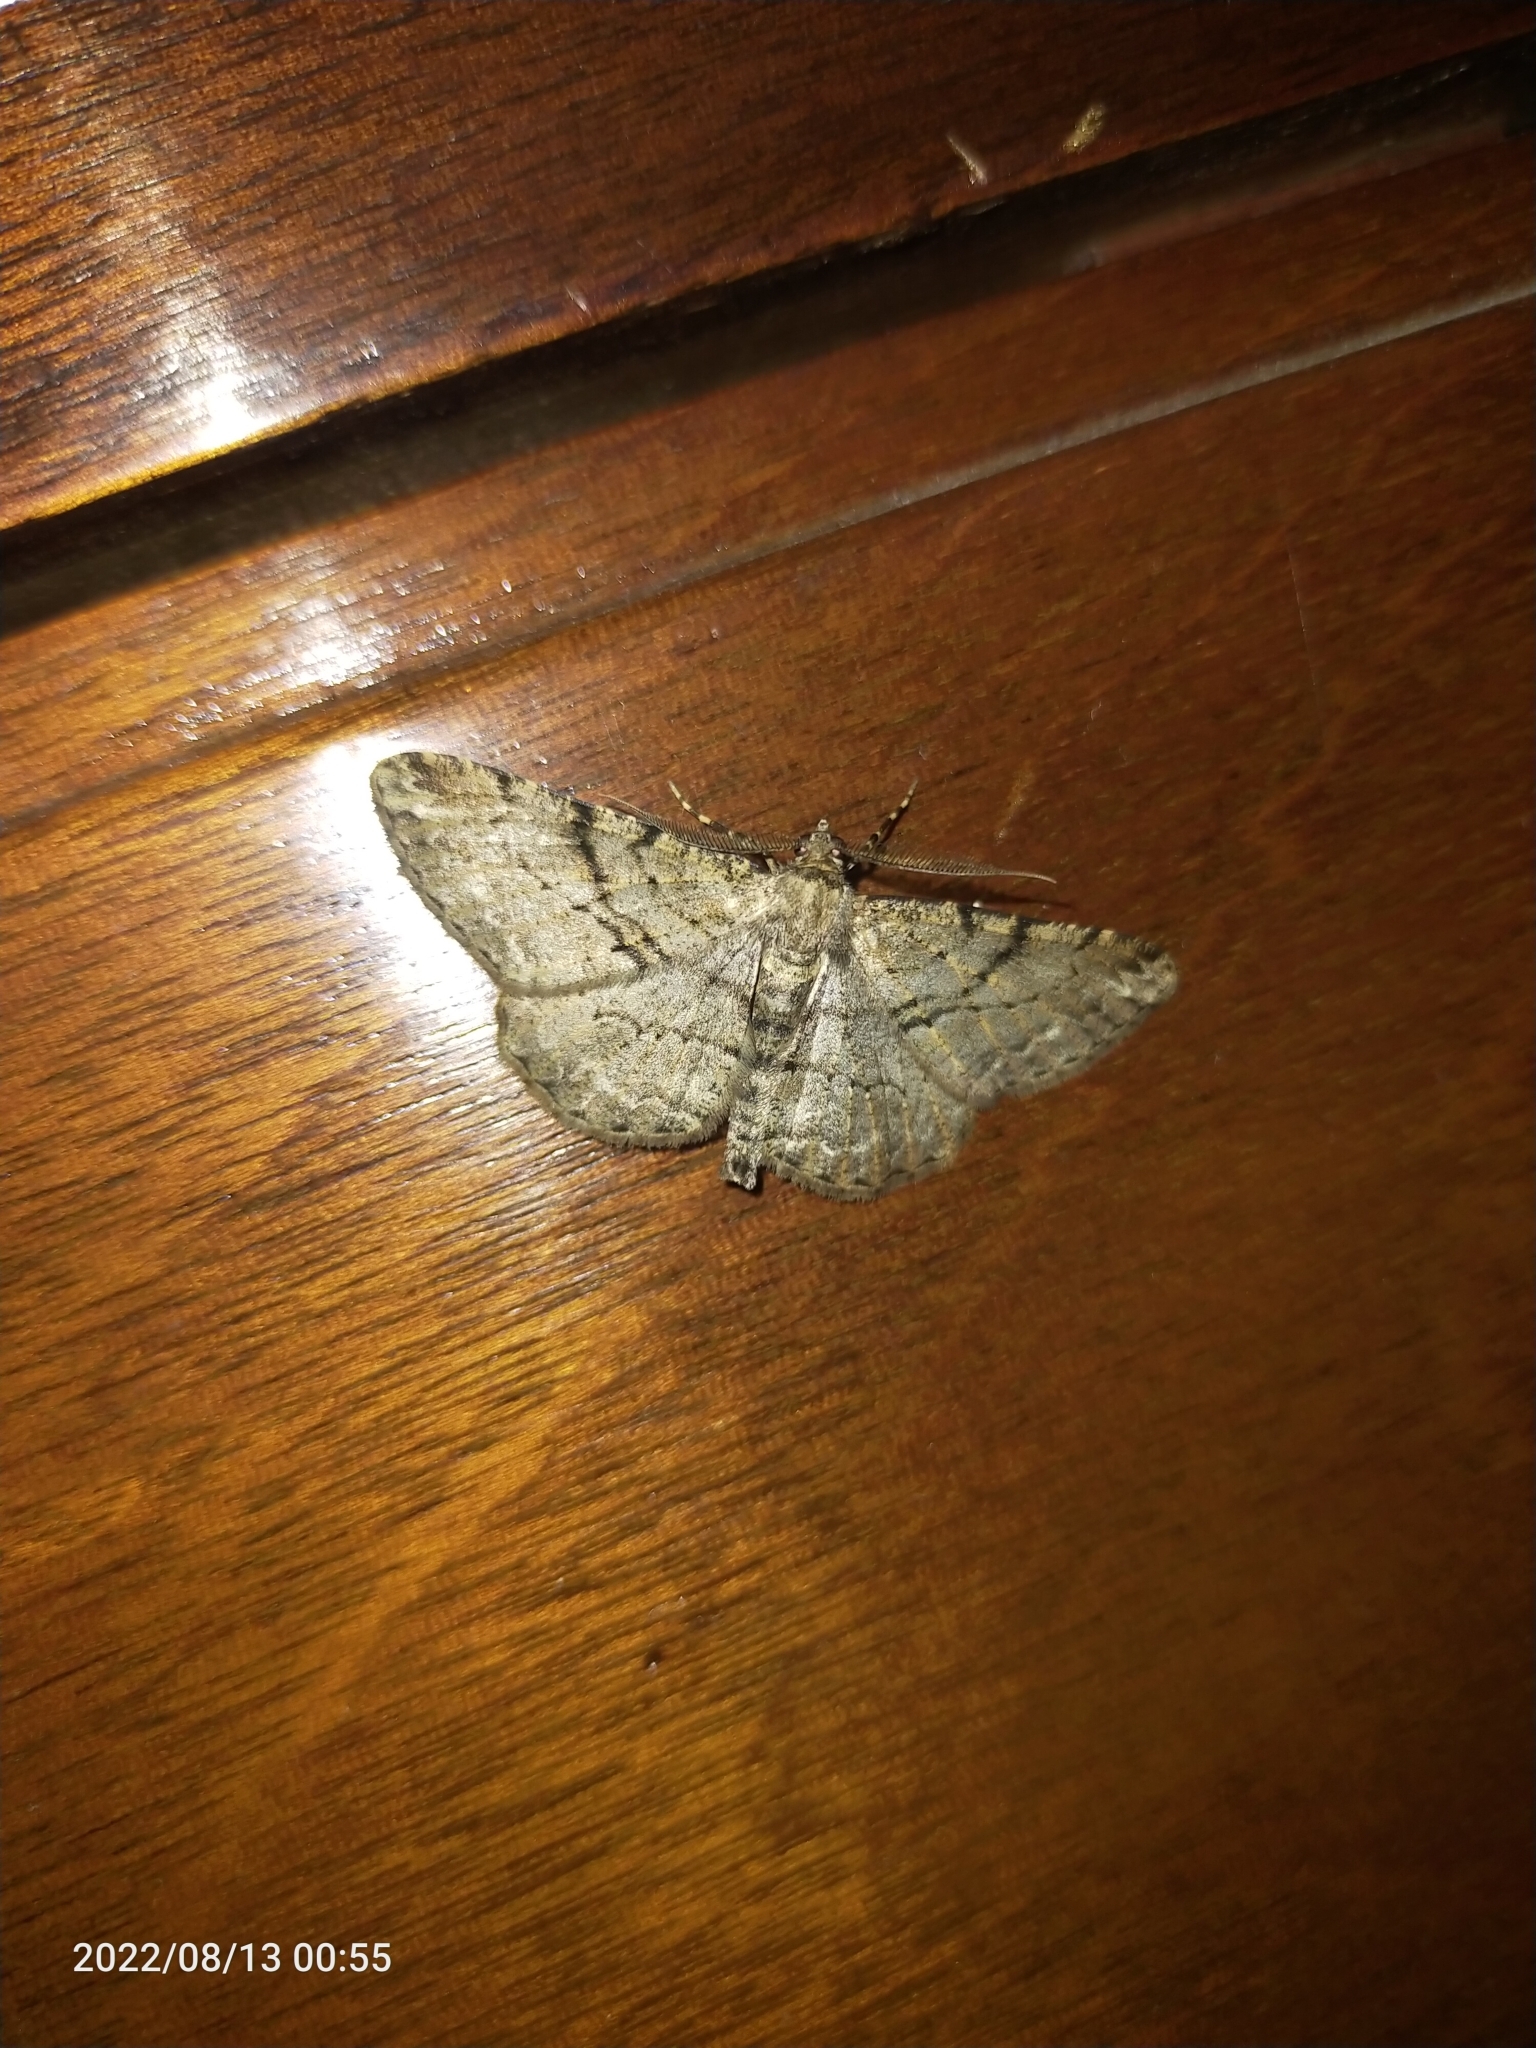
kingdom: Animalia
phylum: Arthropoda
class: Insecta
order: Lepidoptera
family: Geometridae
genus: Peribatodes
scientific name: Peribatodes rhomboidaria
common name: Willow beauty
